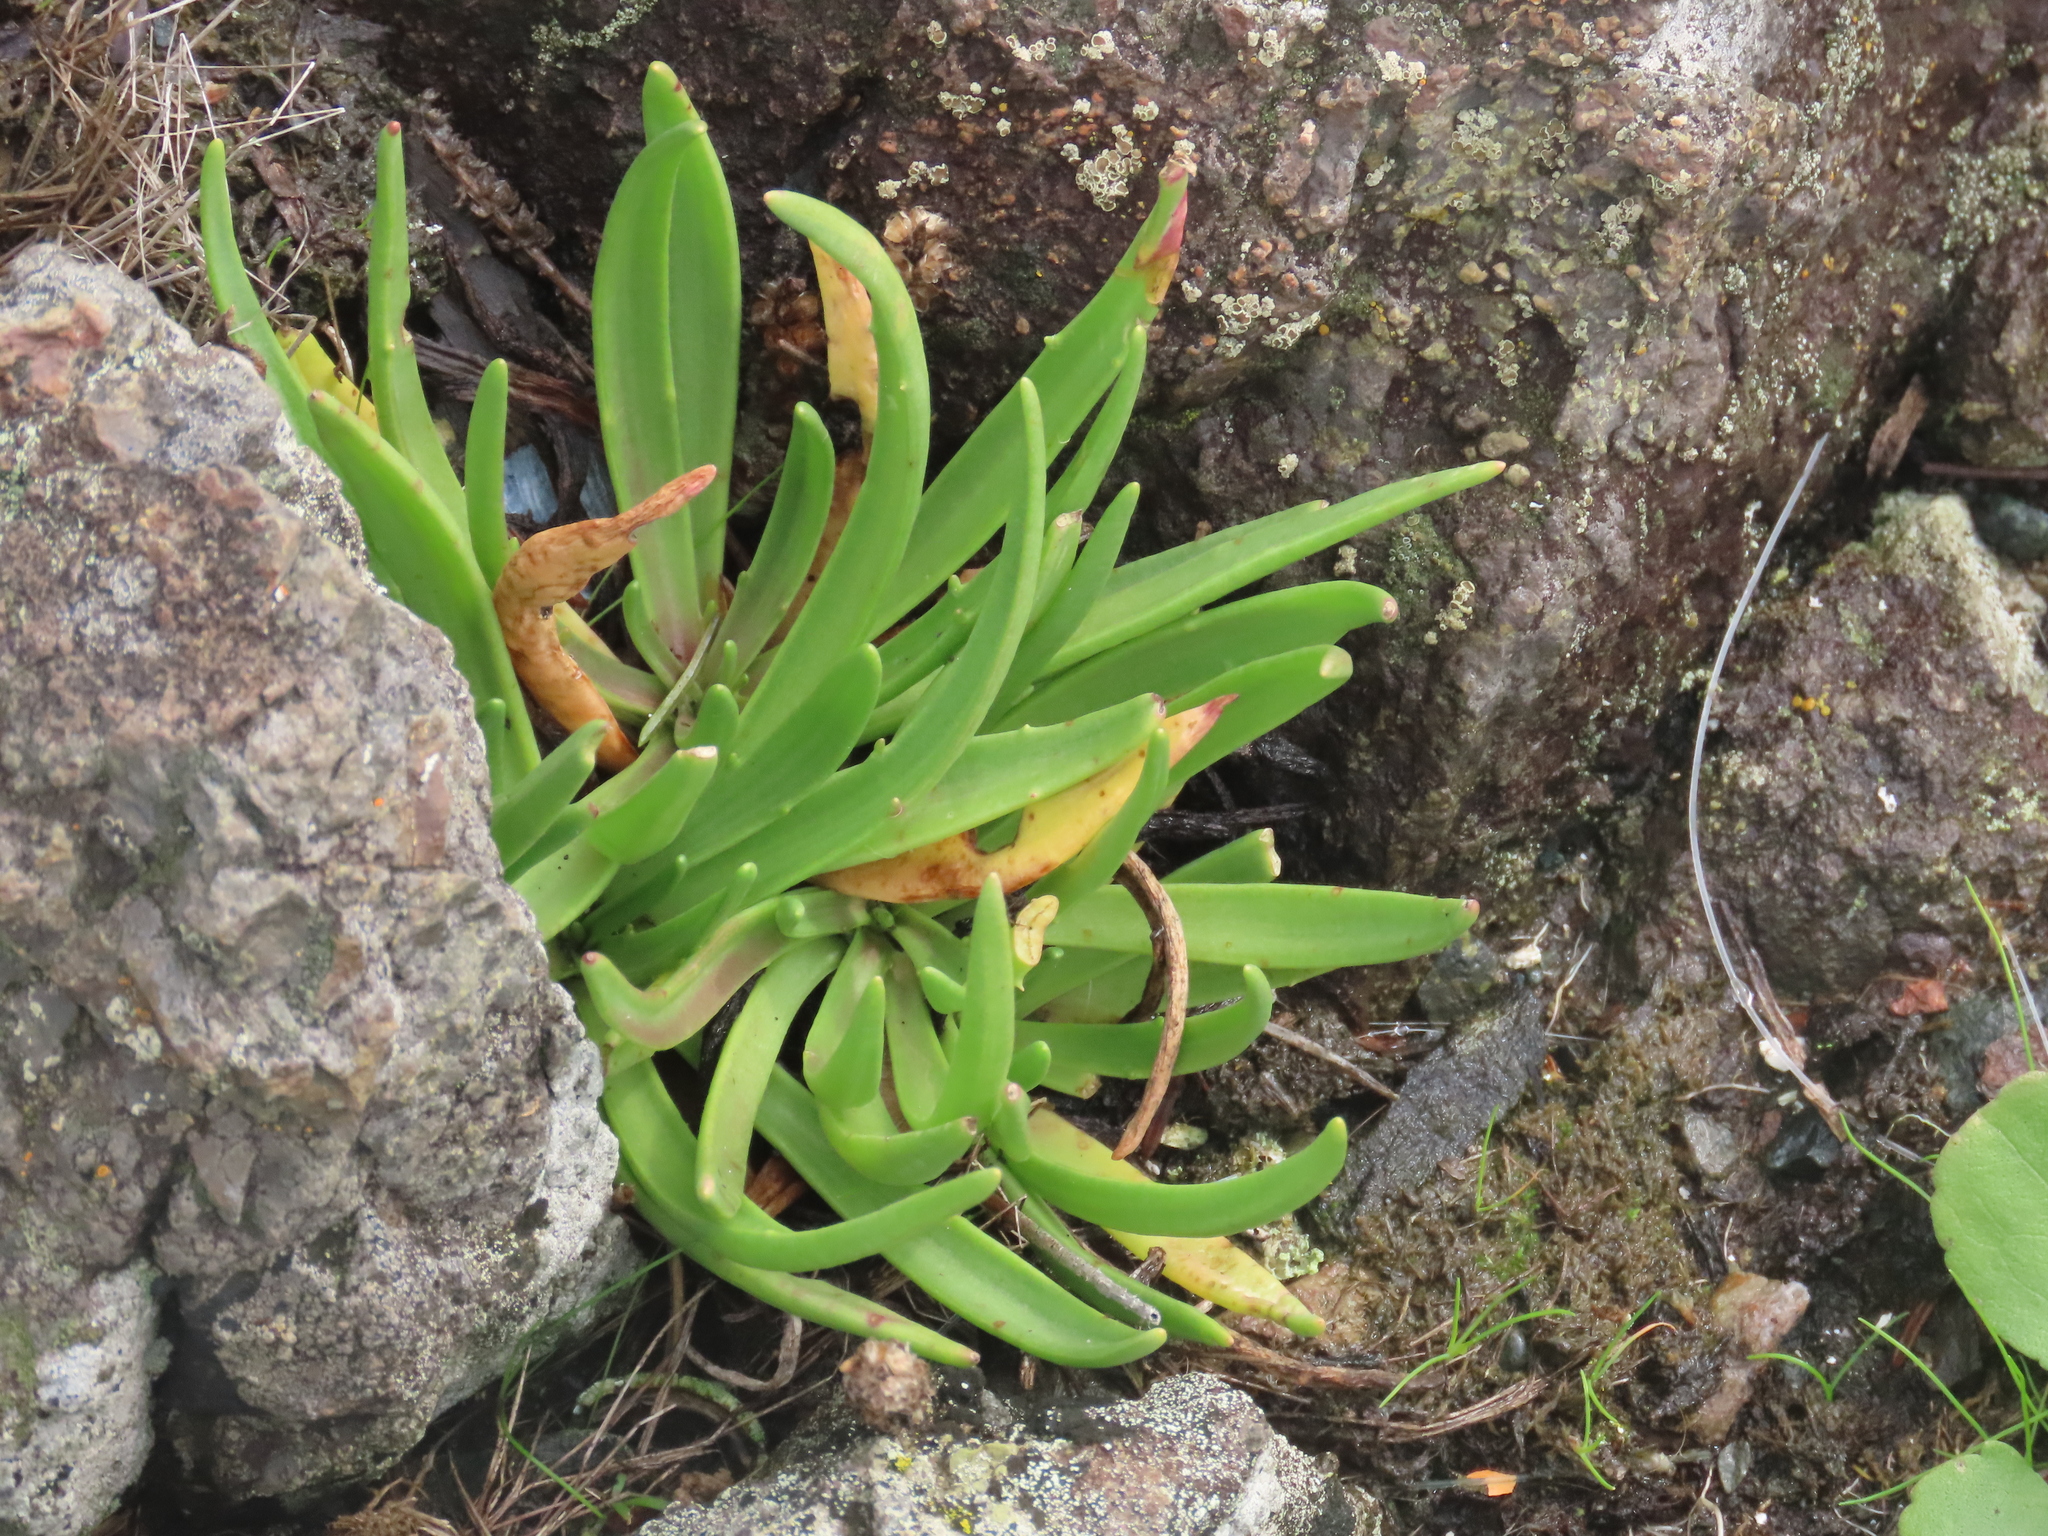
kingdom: Plantae
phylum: Tracheophyta
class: Magnoliopsida
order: Lamiales
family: Plantaginaceae
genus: Plantago
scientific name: Plantago maritima
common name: Sea plantain
